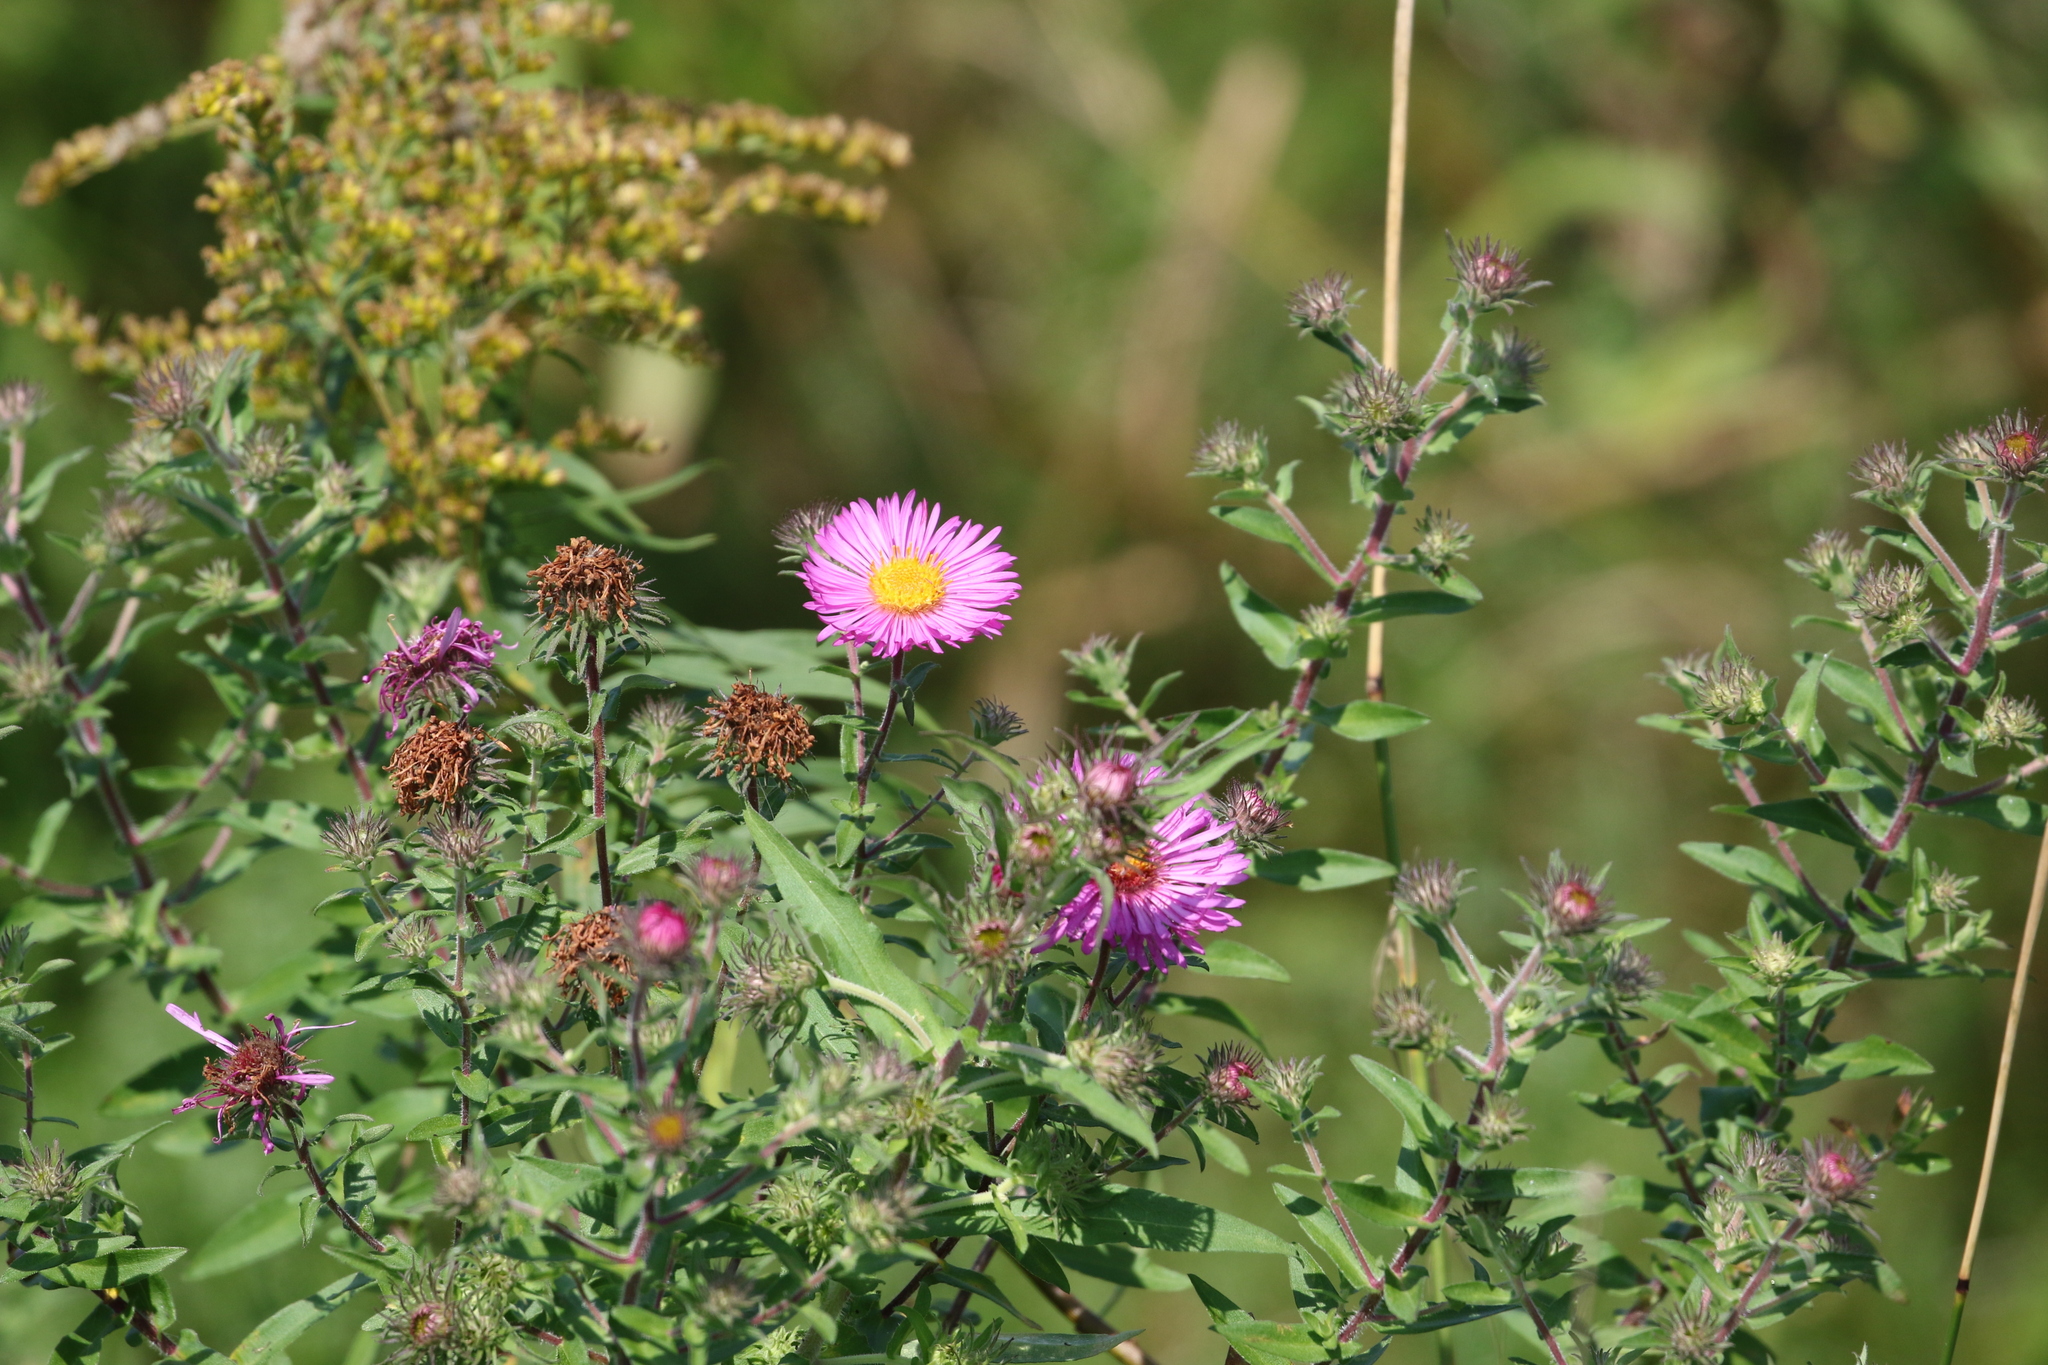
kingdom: Plantae
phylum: Tracheophyta
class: Magnoliopsida
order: Asterales
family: Asteraceae
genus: Symphyotrichum
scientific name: Symphyotrichum novae-angliae
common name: Michaelmas daisy
